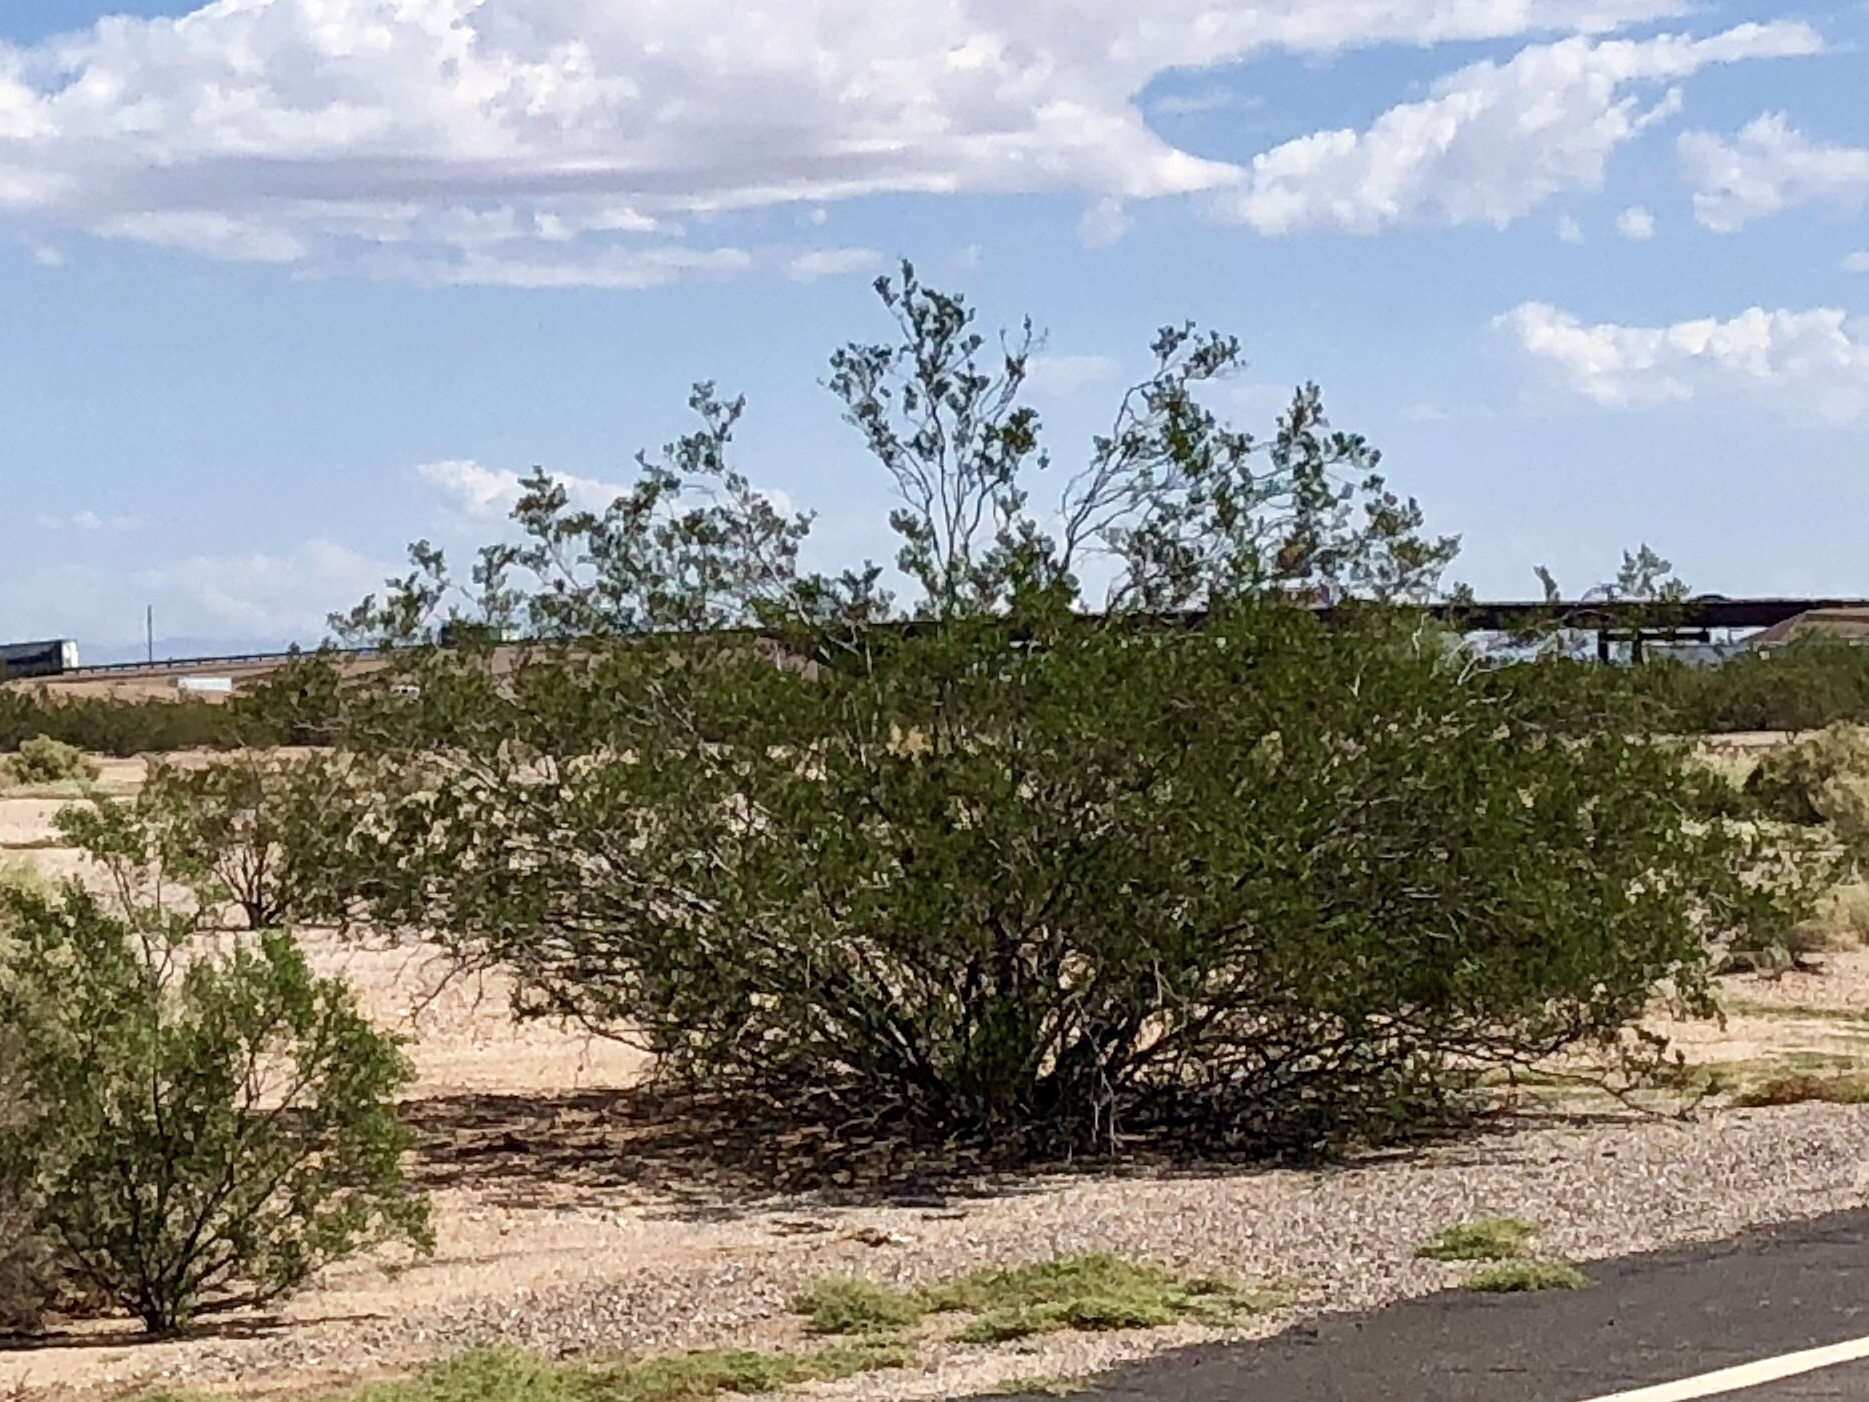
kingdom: Plantae
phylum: Tracheophyta
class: Magnoliopsida
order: Zygophyllales
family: Zygophyllaceae
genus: Larrea
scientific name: Larrea tridentata
